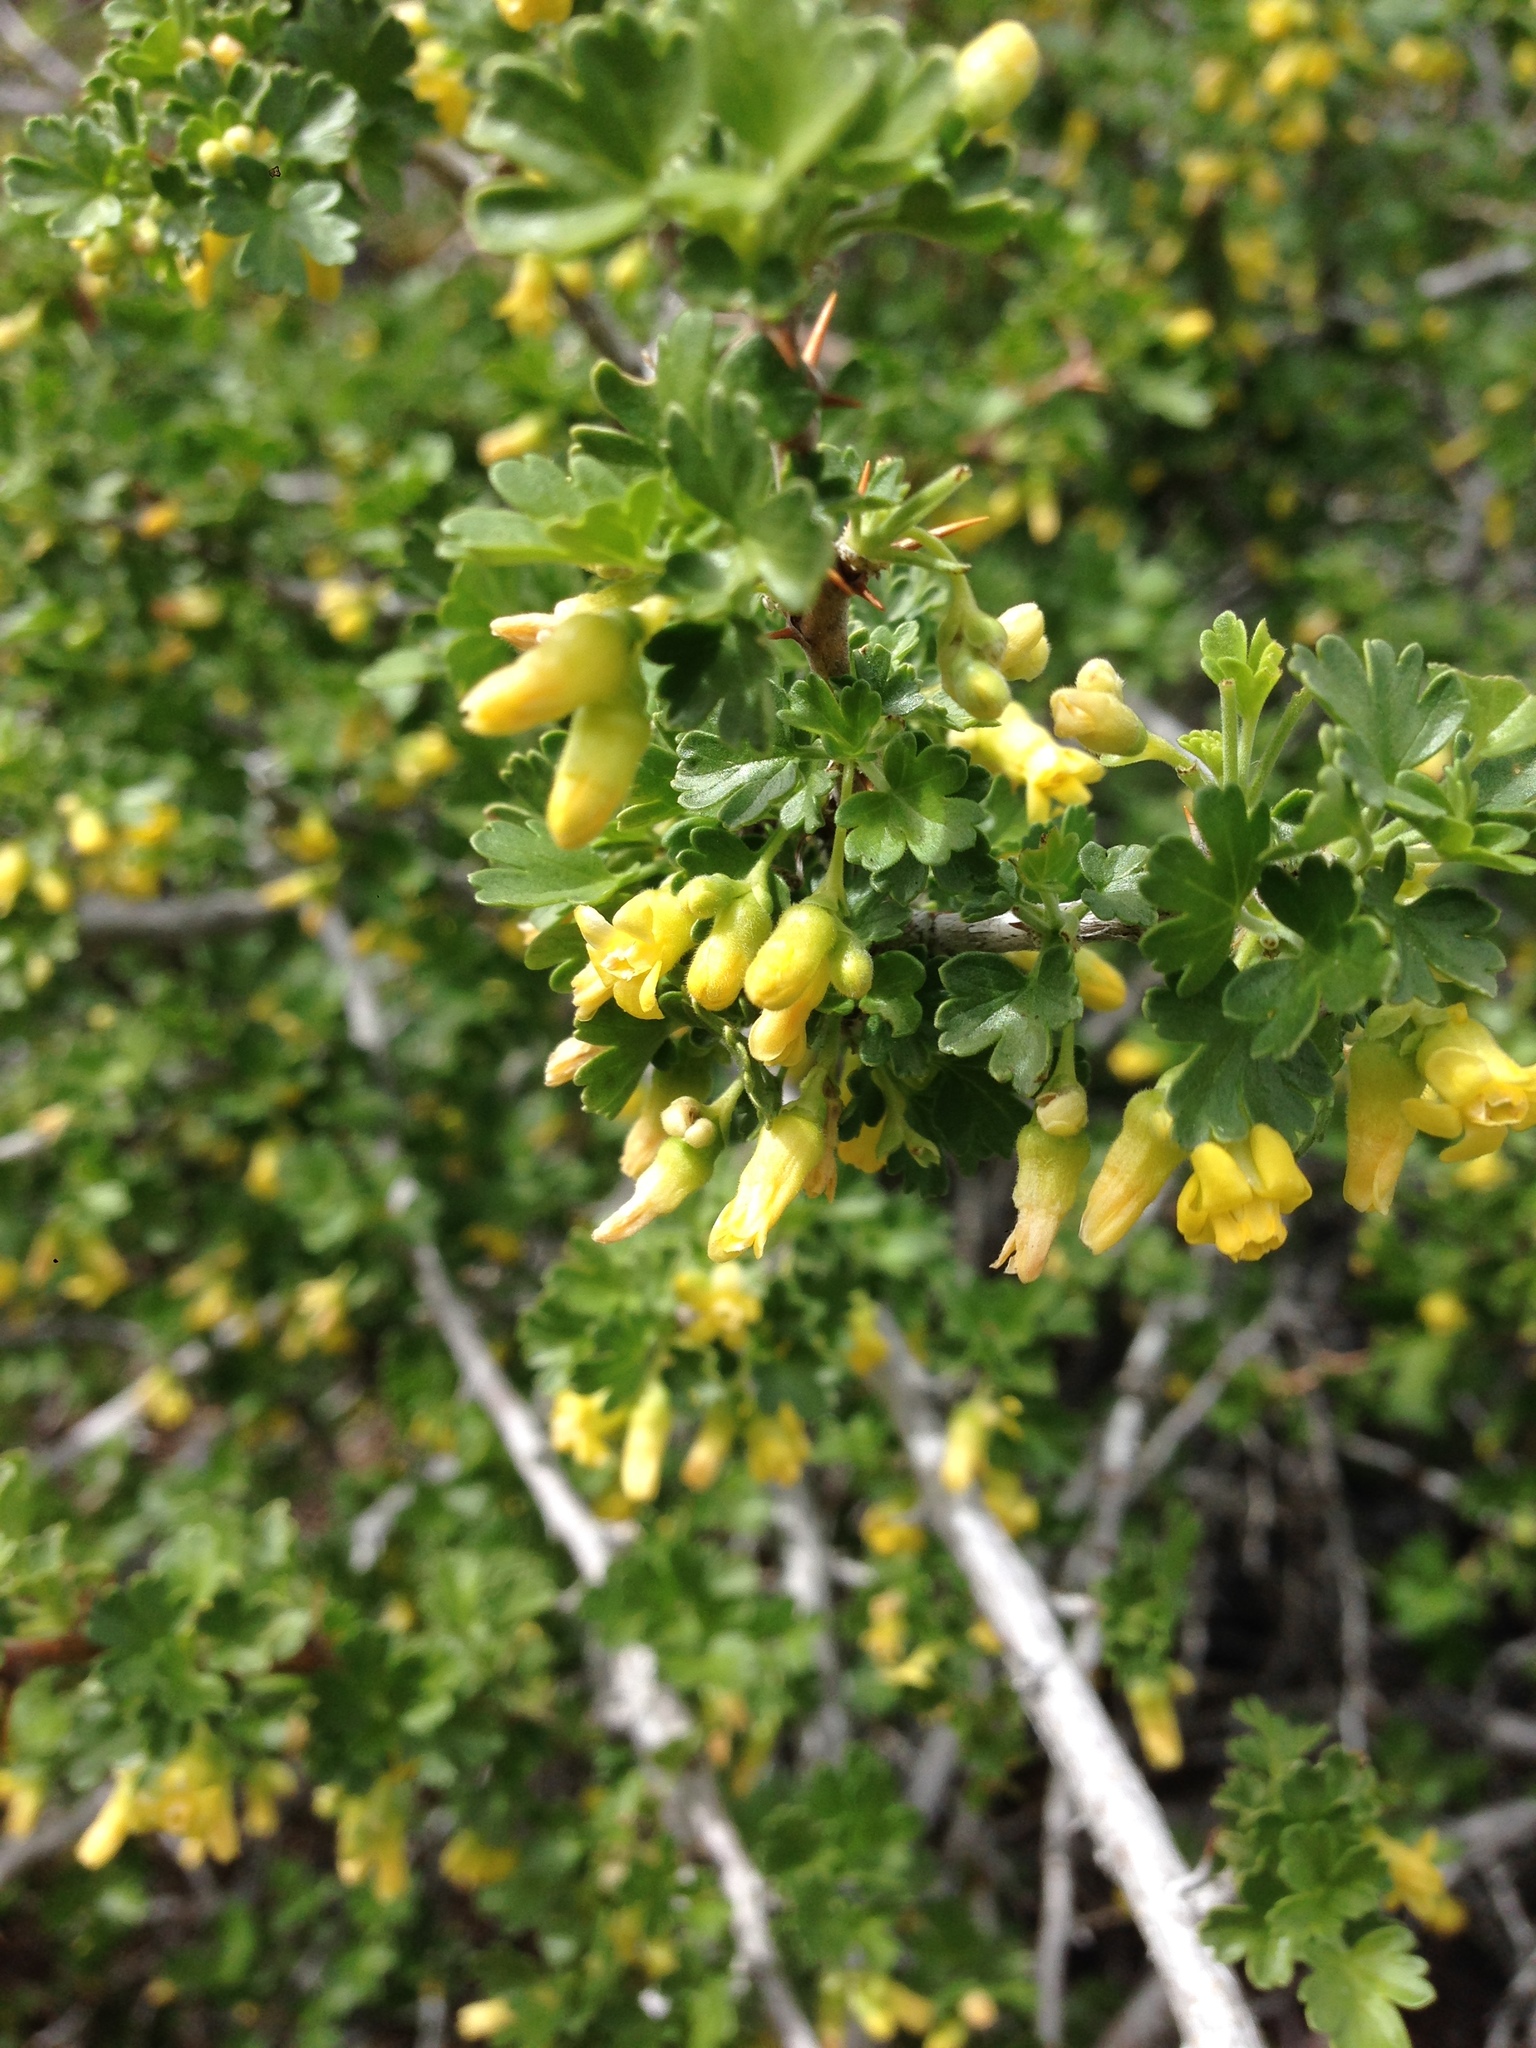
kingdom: Plantae
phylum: Tracheophyta
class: Magnoliopsida
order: Saxifragales
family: Grossulariaceae
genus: Ribes
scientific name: Ribes quercetorum
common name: Oak gooseberry
